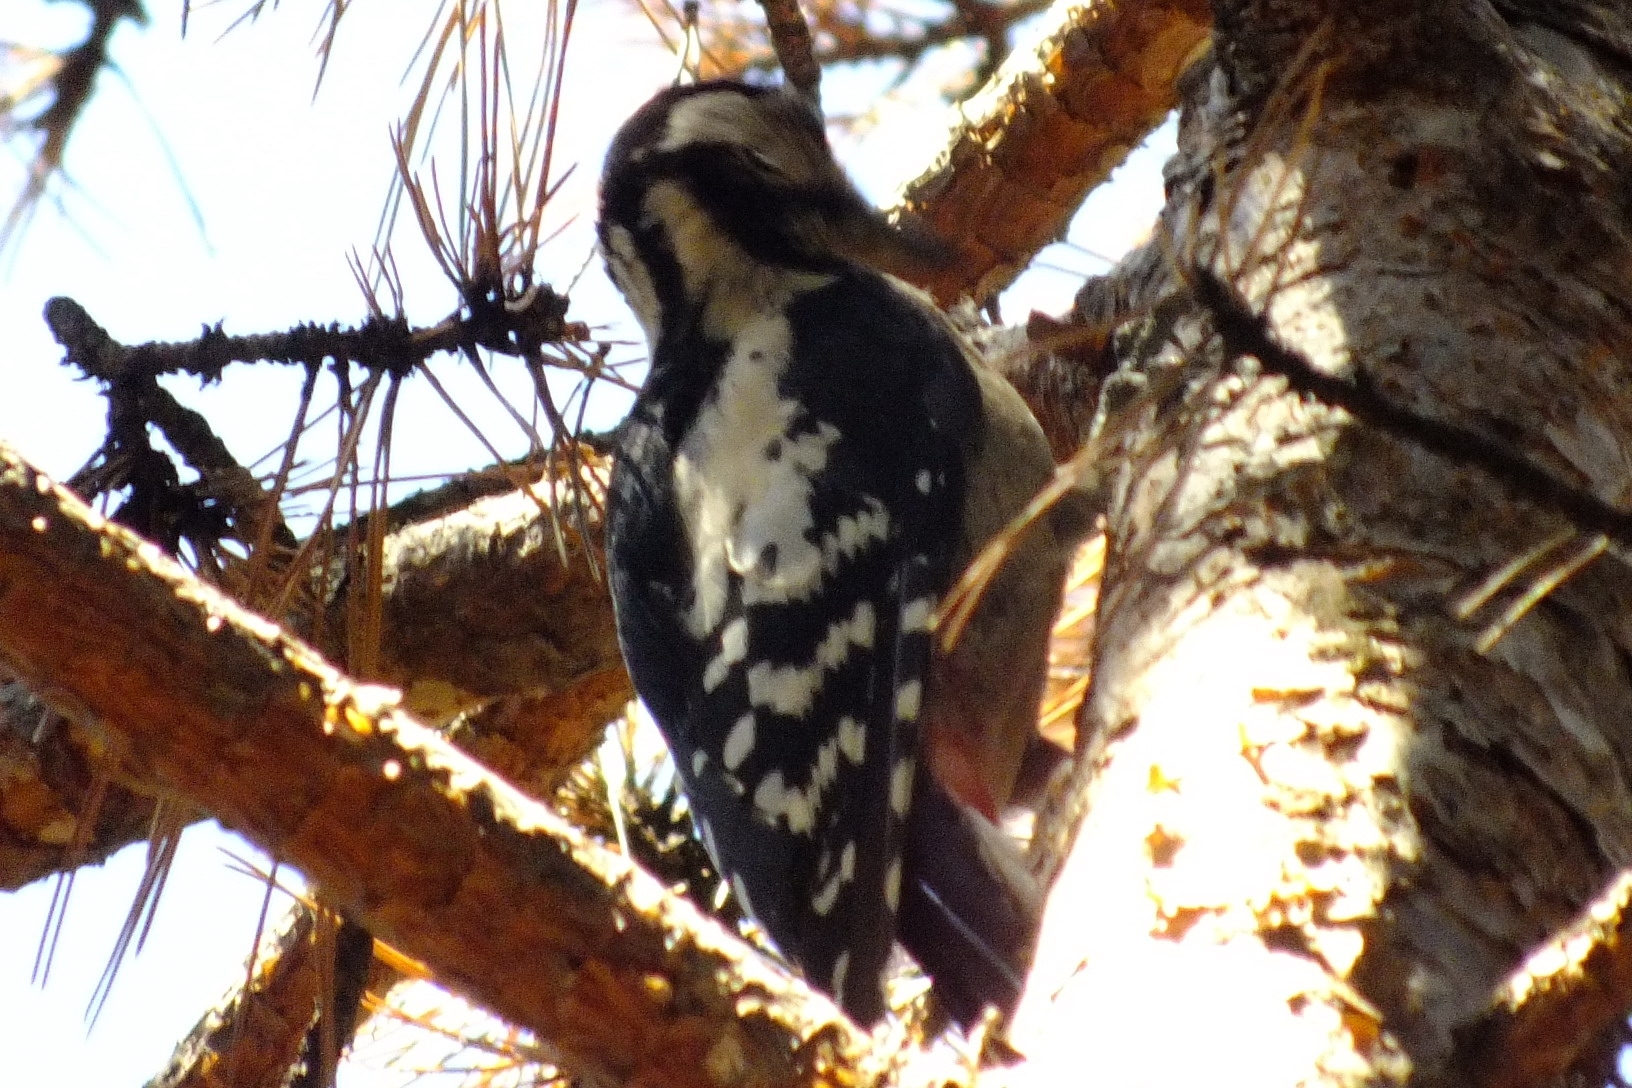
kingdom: Animalia
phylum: Chordata
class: Aves
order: Piciformes
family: Picidae
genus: Dendrocopos
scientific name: Dendrocopos major
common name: Great spotted woodpecker
